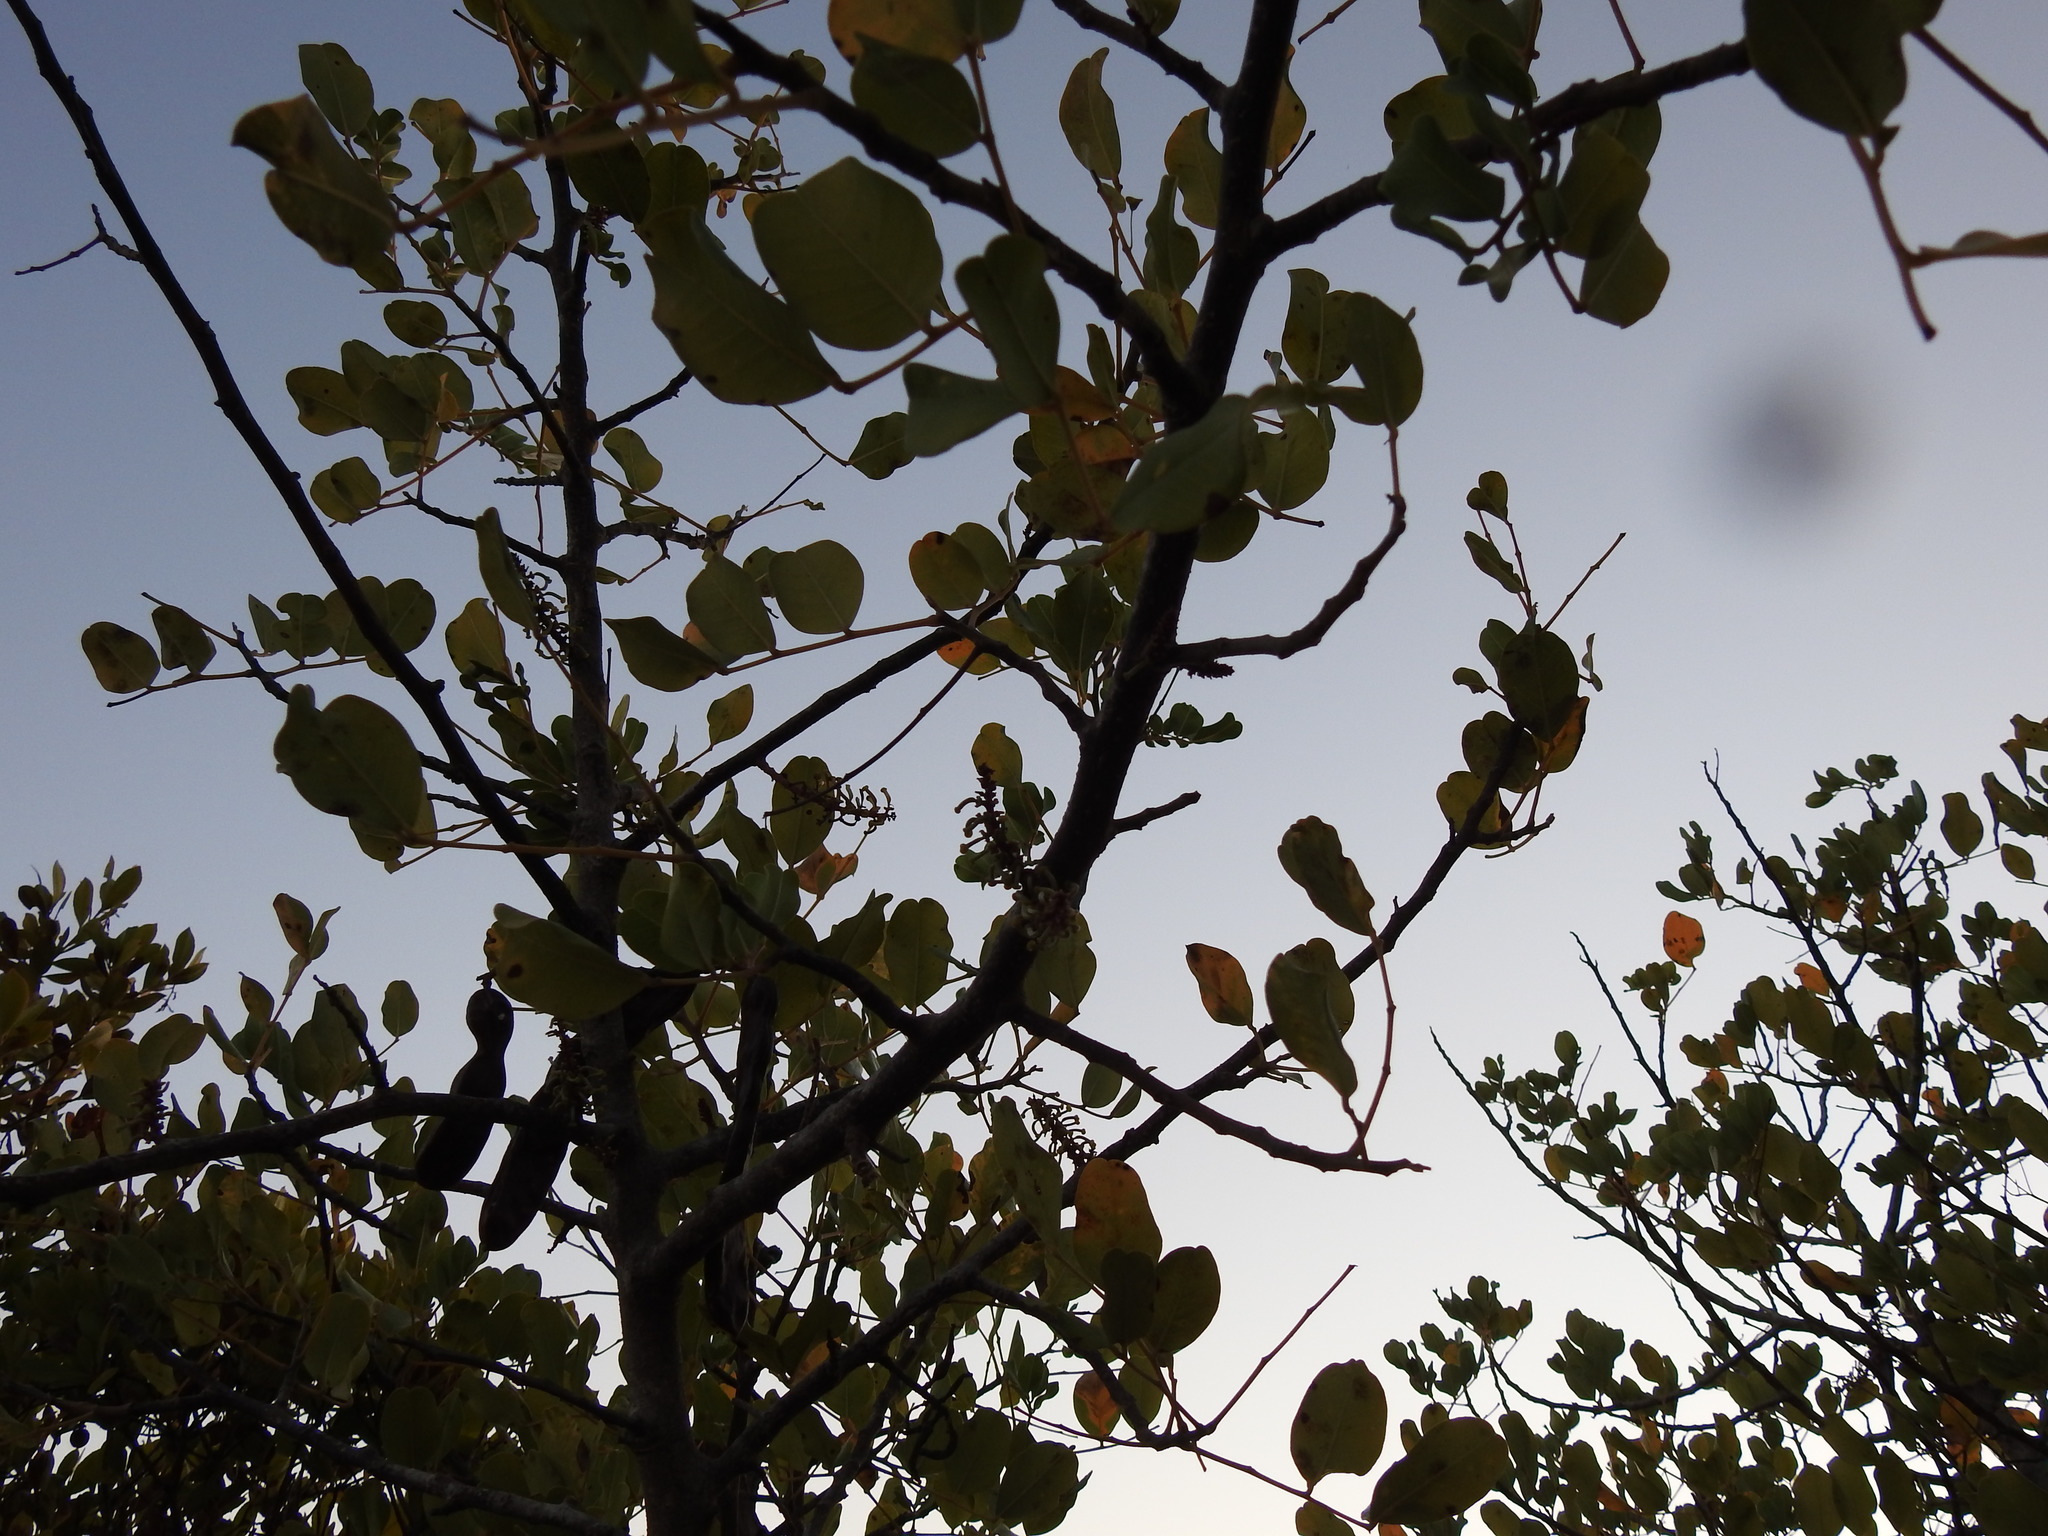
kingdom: Plantae
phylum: Tracheophyta
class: Magnoliopsida
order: Fabales
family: Fabaceae
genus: Ceratonia
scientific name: Ceratonia siliqua
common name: Carob
